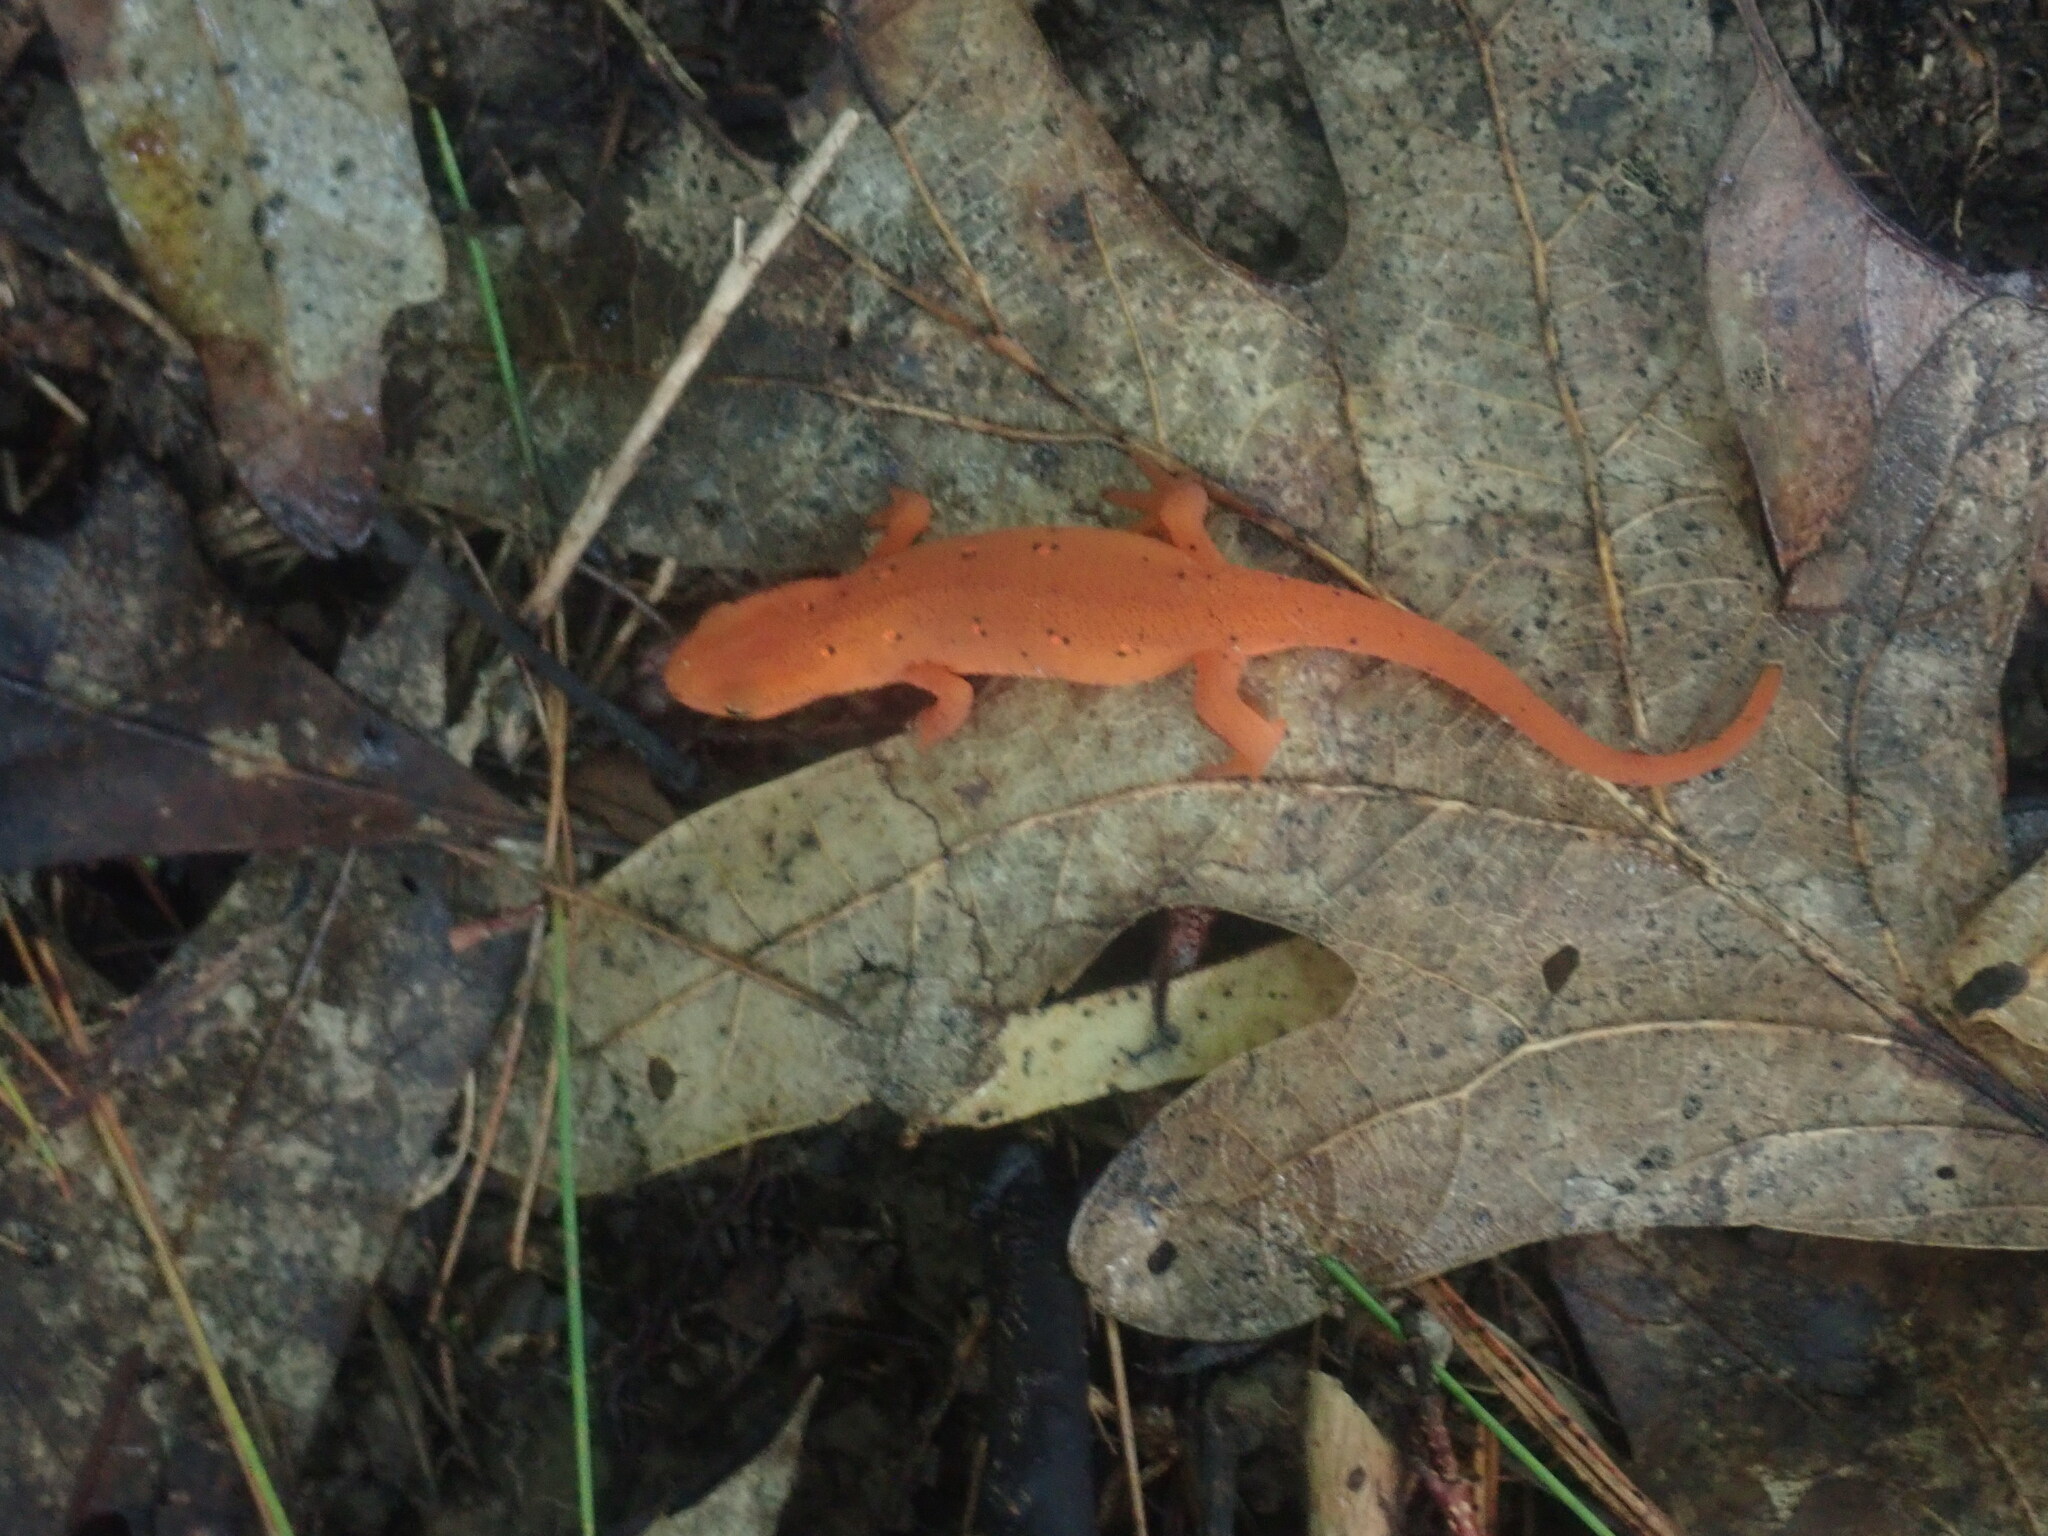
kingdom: Animalia
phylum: Chordata
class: Amphibia
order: Caudata
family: Salamandridae
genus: Notophthalmus
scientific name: Notophthalmus viridescens
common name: Eastern newt
